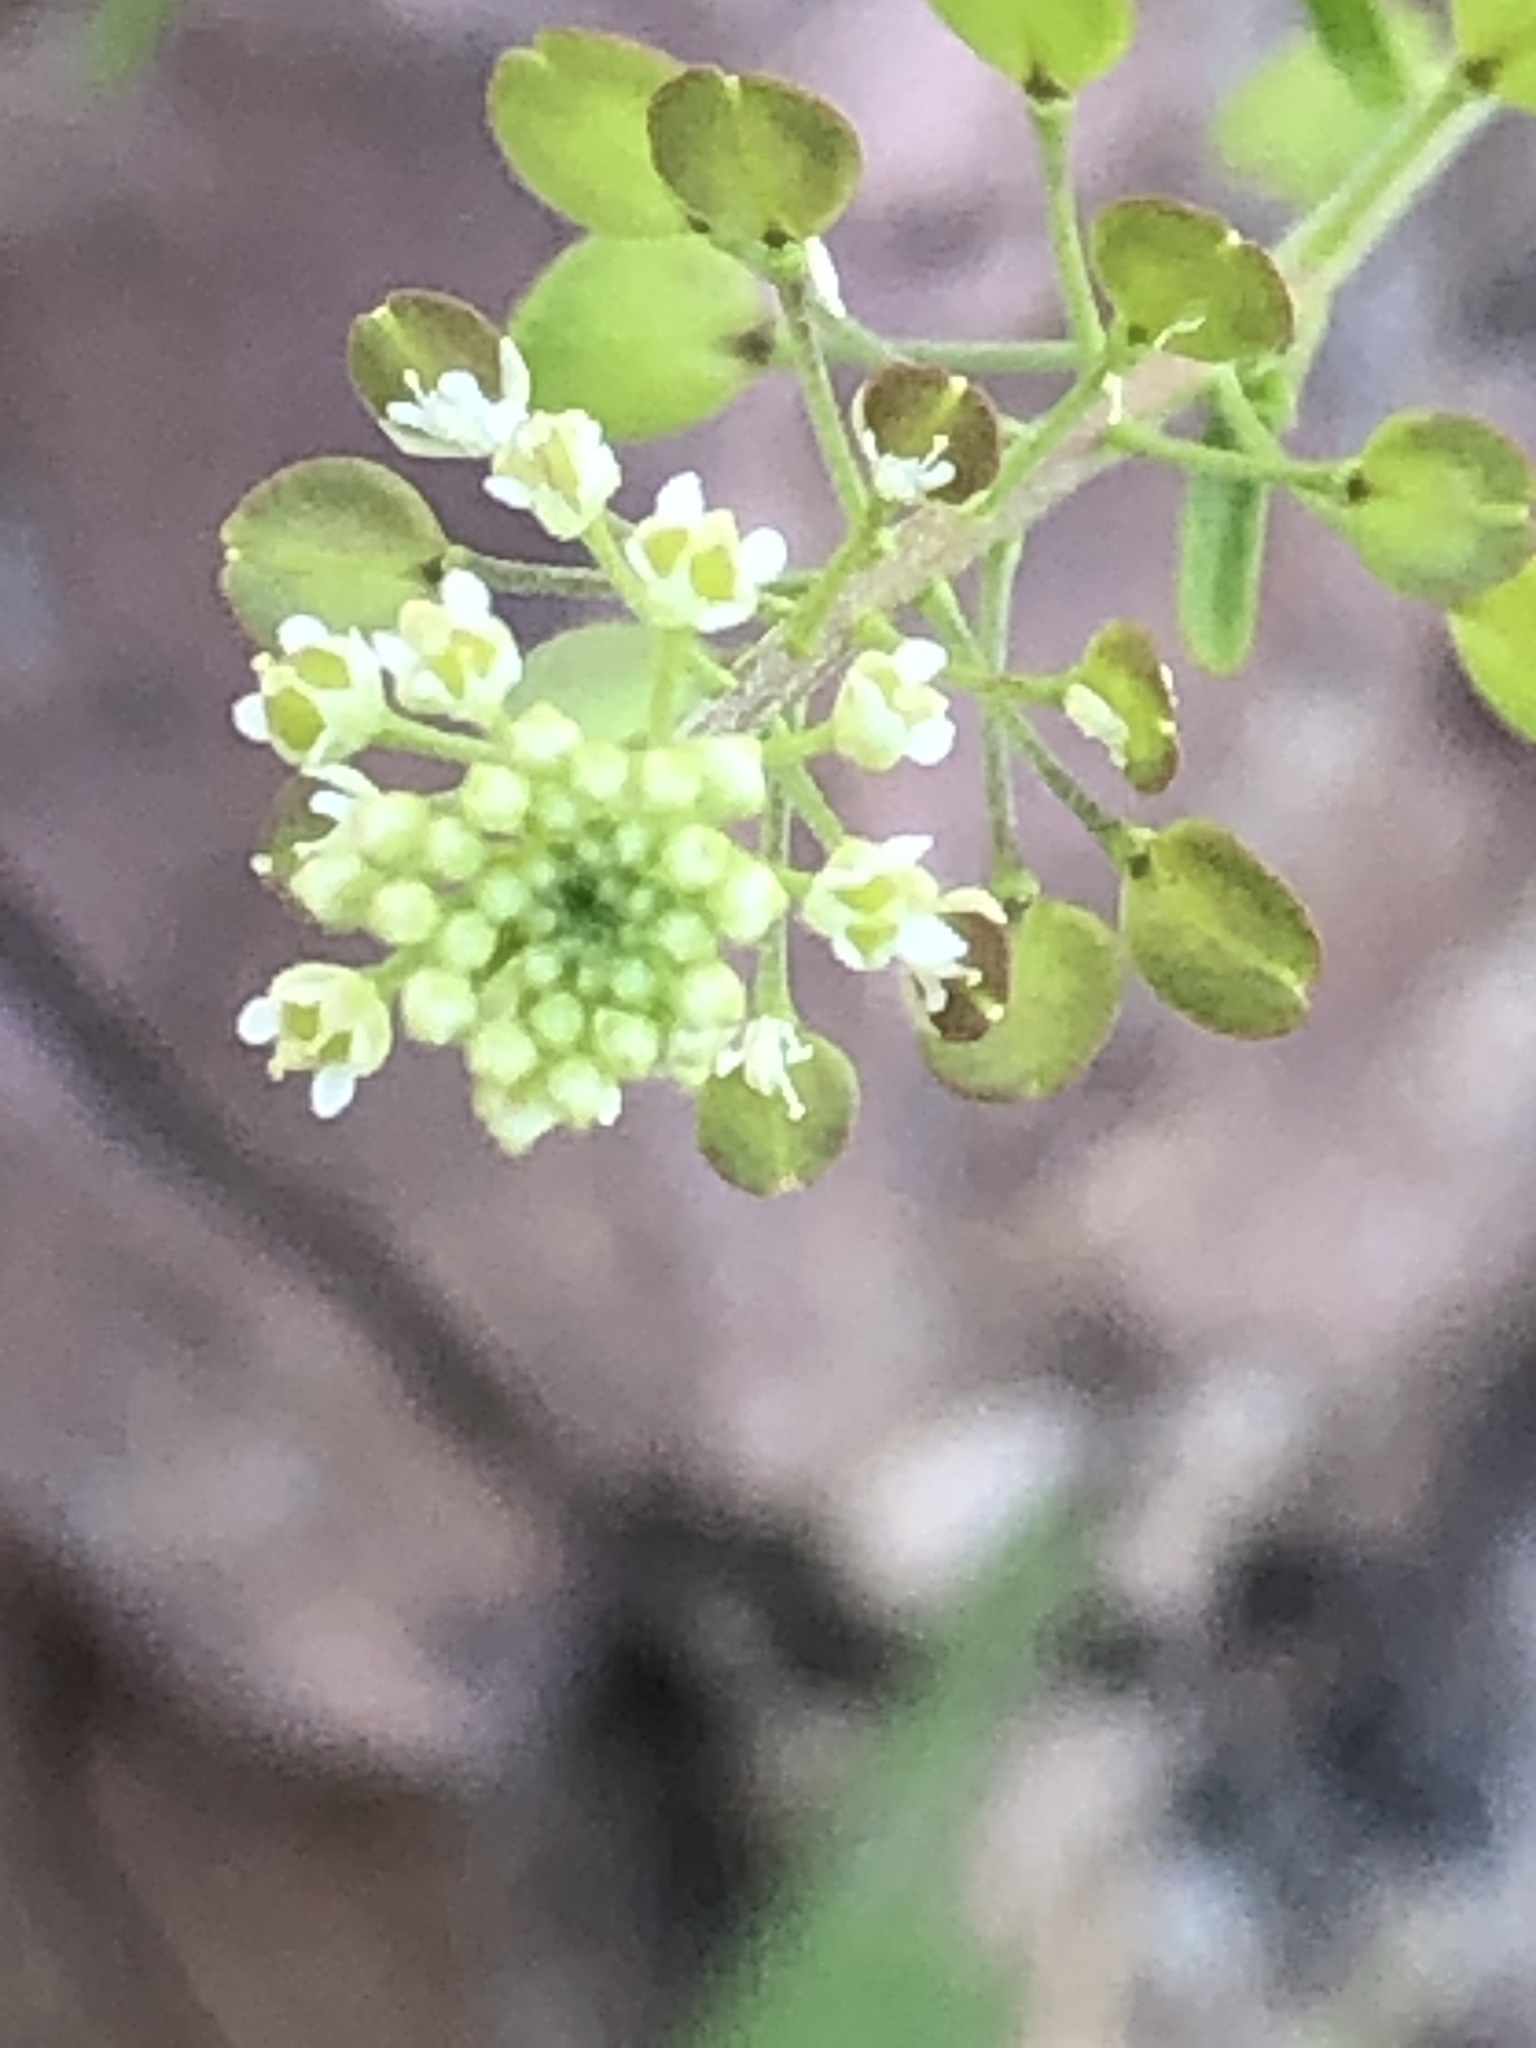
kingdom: Plantae
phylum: Tracheophyta
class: Magnoliopsida
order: Brassicales
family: Brassicaceae
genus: Lepidium
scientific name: Lepidium virginicum
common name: Least pepperwort
